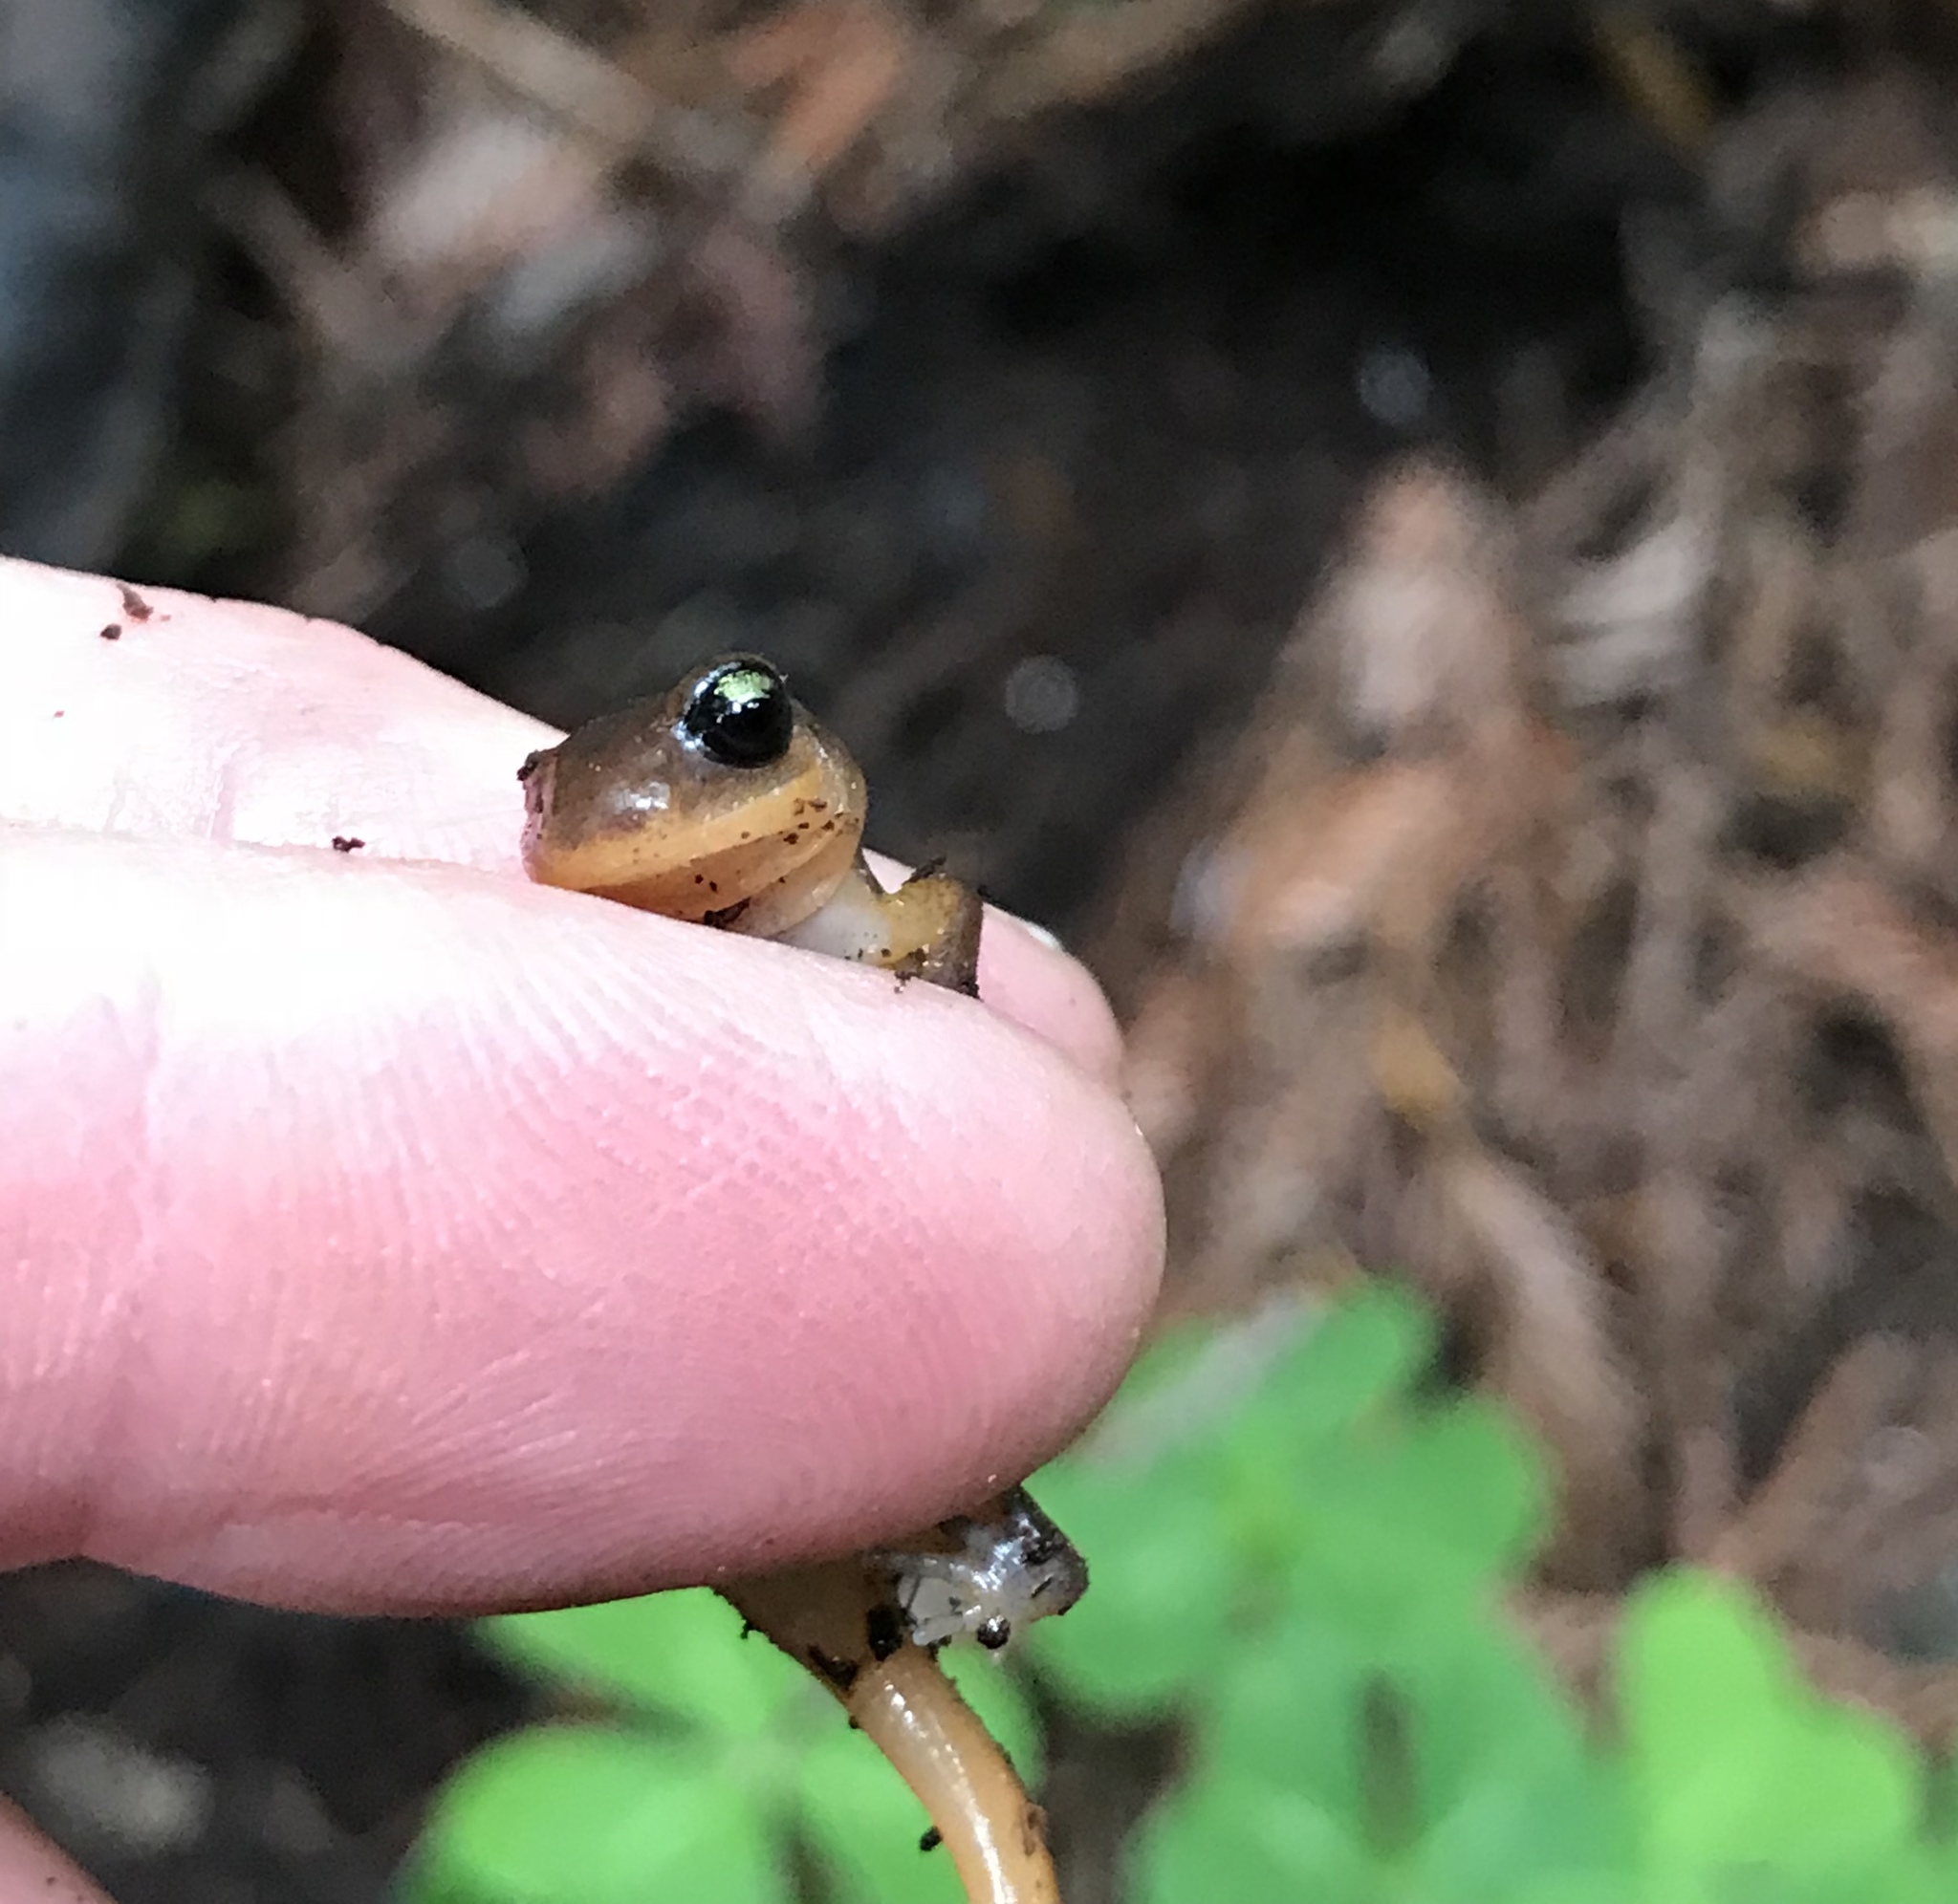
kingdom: Animalia
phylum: Chordata
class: Amphibia
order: Caudata
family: Plethodontidae
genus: Ensatina
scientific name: Ensatina eschscholtzii
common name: Ensatina
